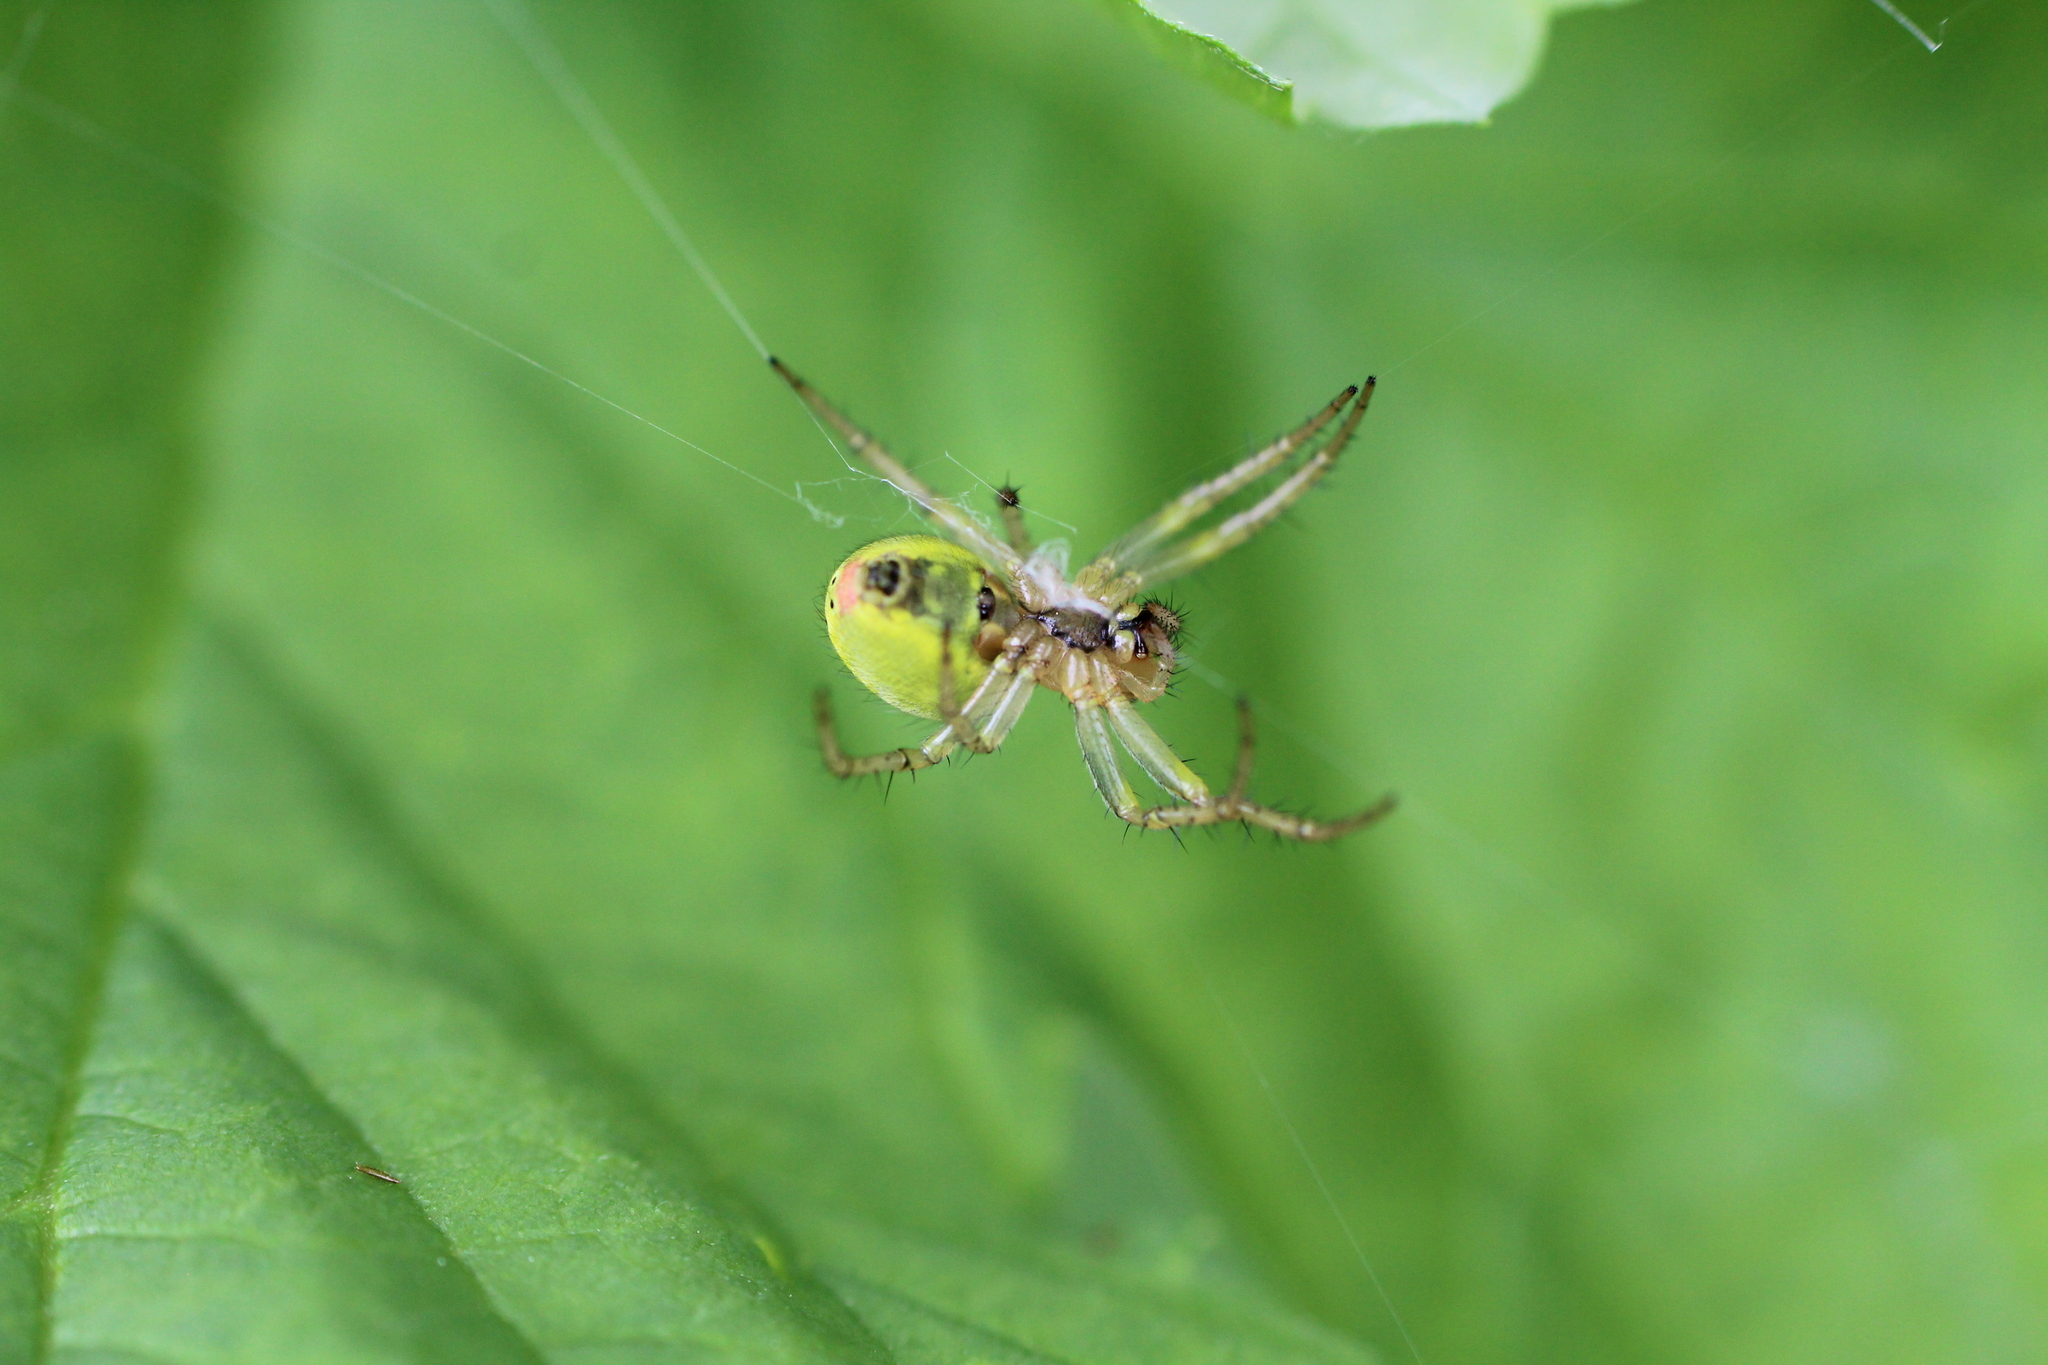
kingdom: Animalia
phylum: Arthropoda
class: Arachnida
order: Araneae
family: Araneidae
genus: Araniella
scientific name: Araniella
